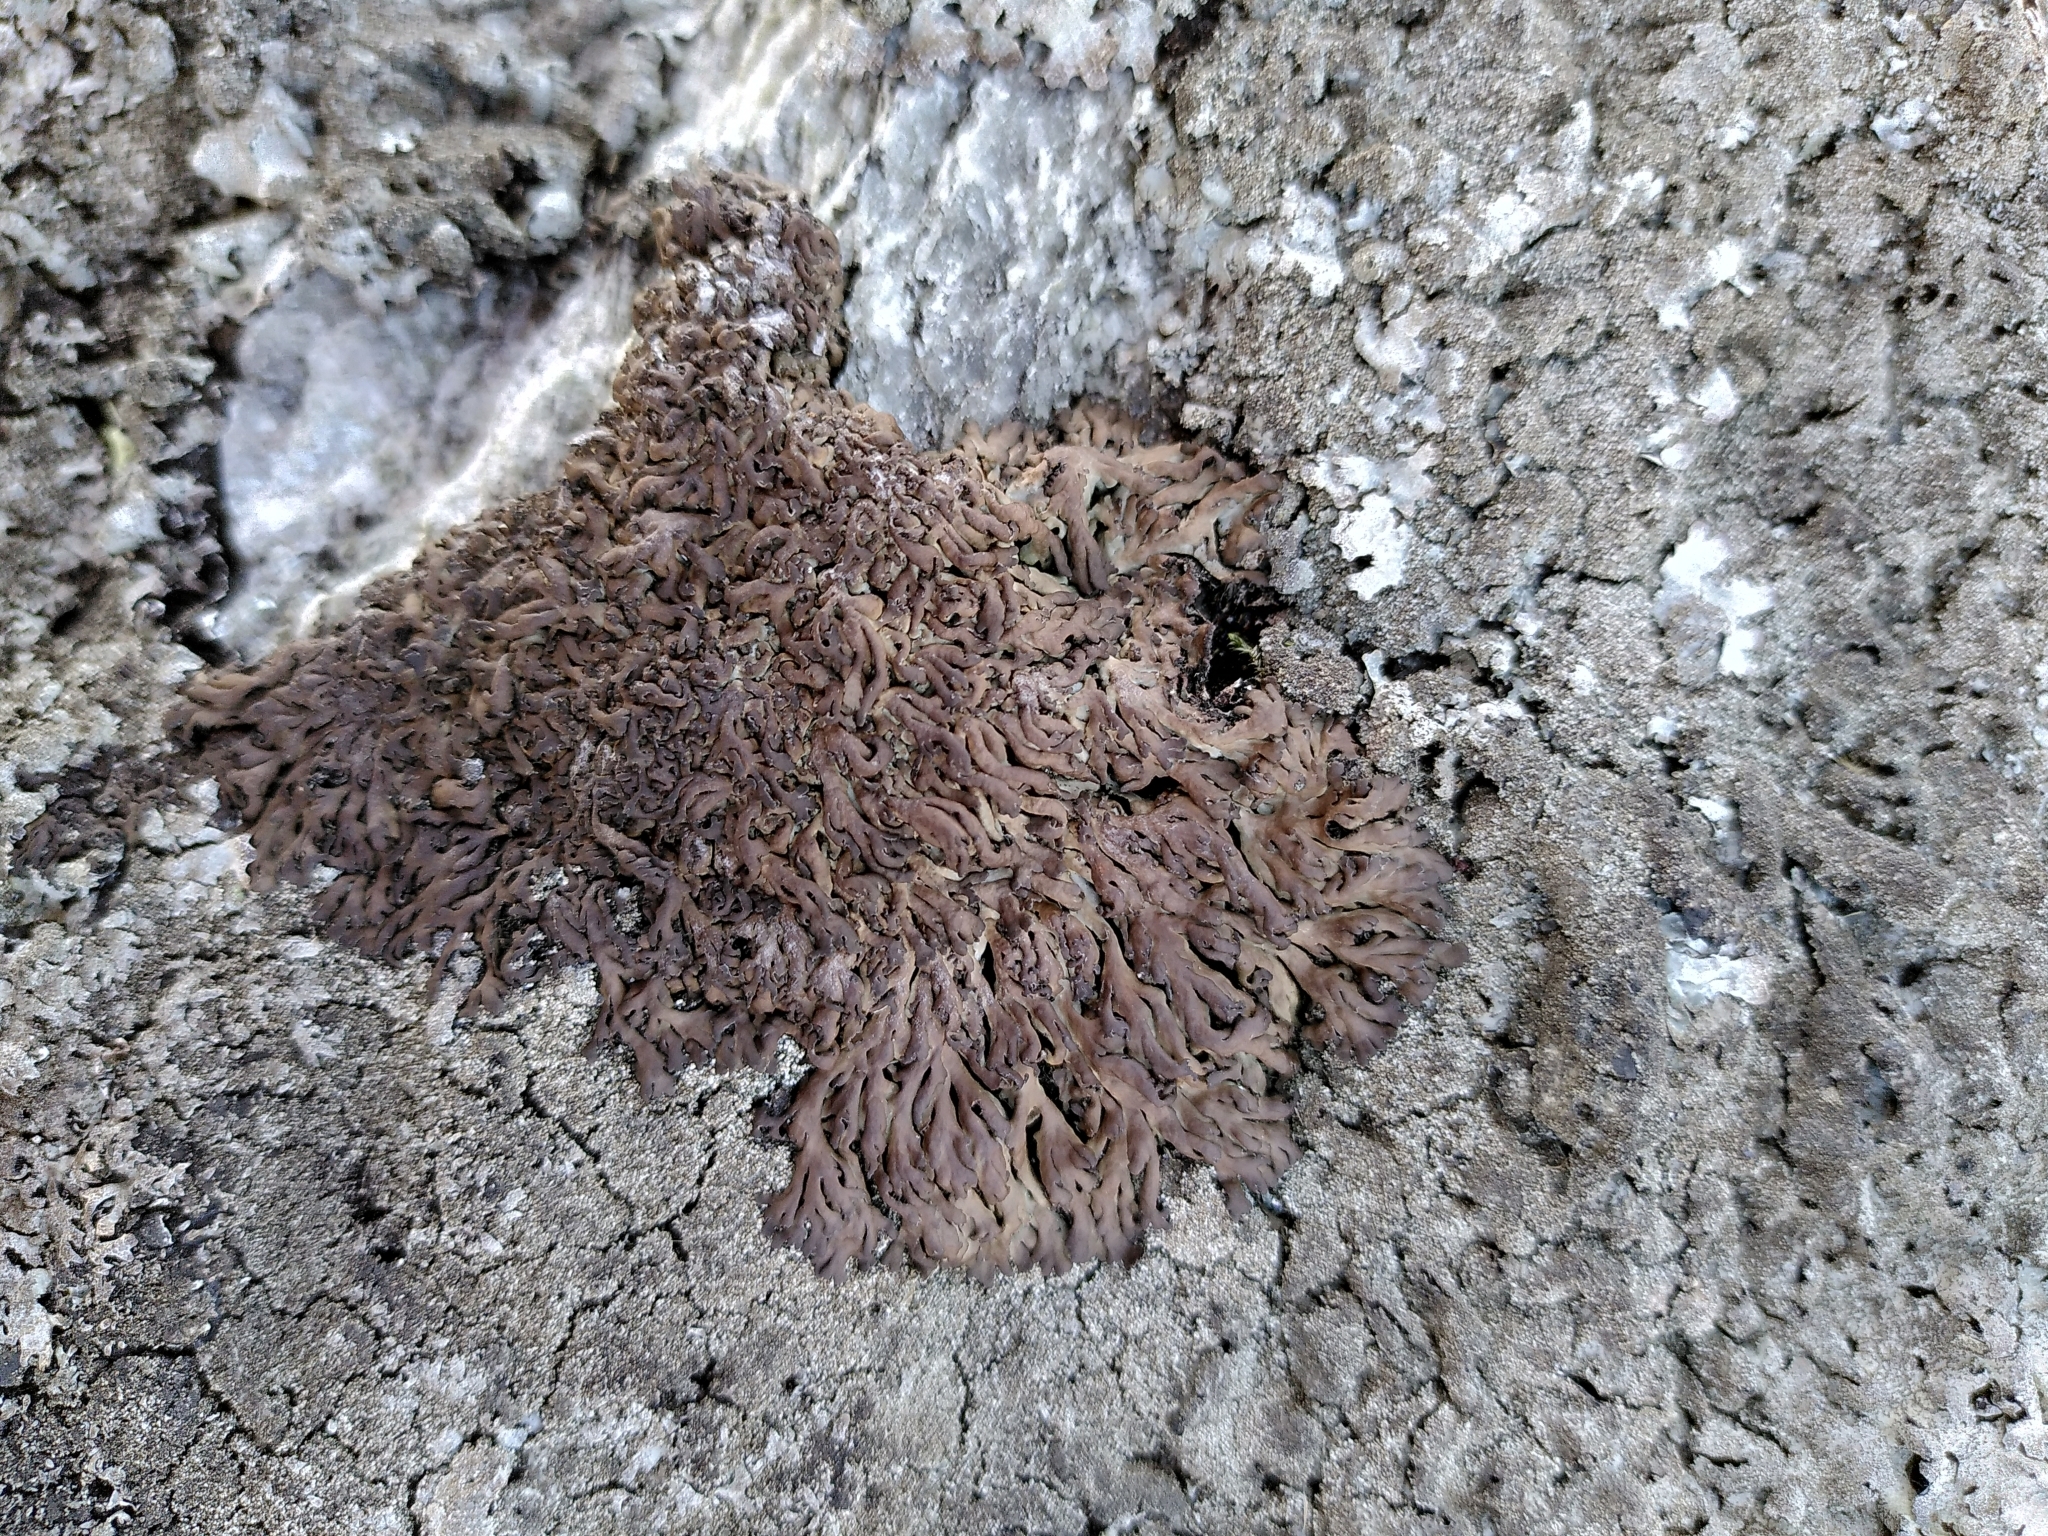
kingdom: Fungi
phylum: Ascomycota
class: Lecanoromycetes
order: Caliciales
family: Physciaceae
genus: Kurokawia
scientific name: Kurokawia runcinata
